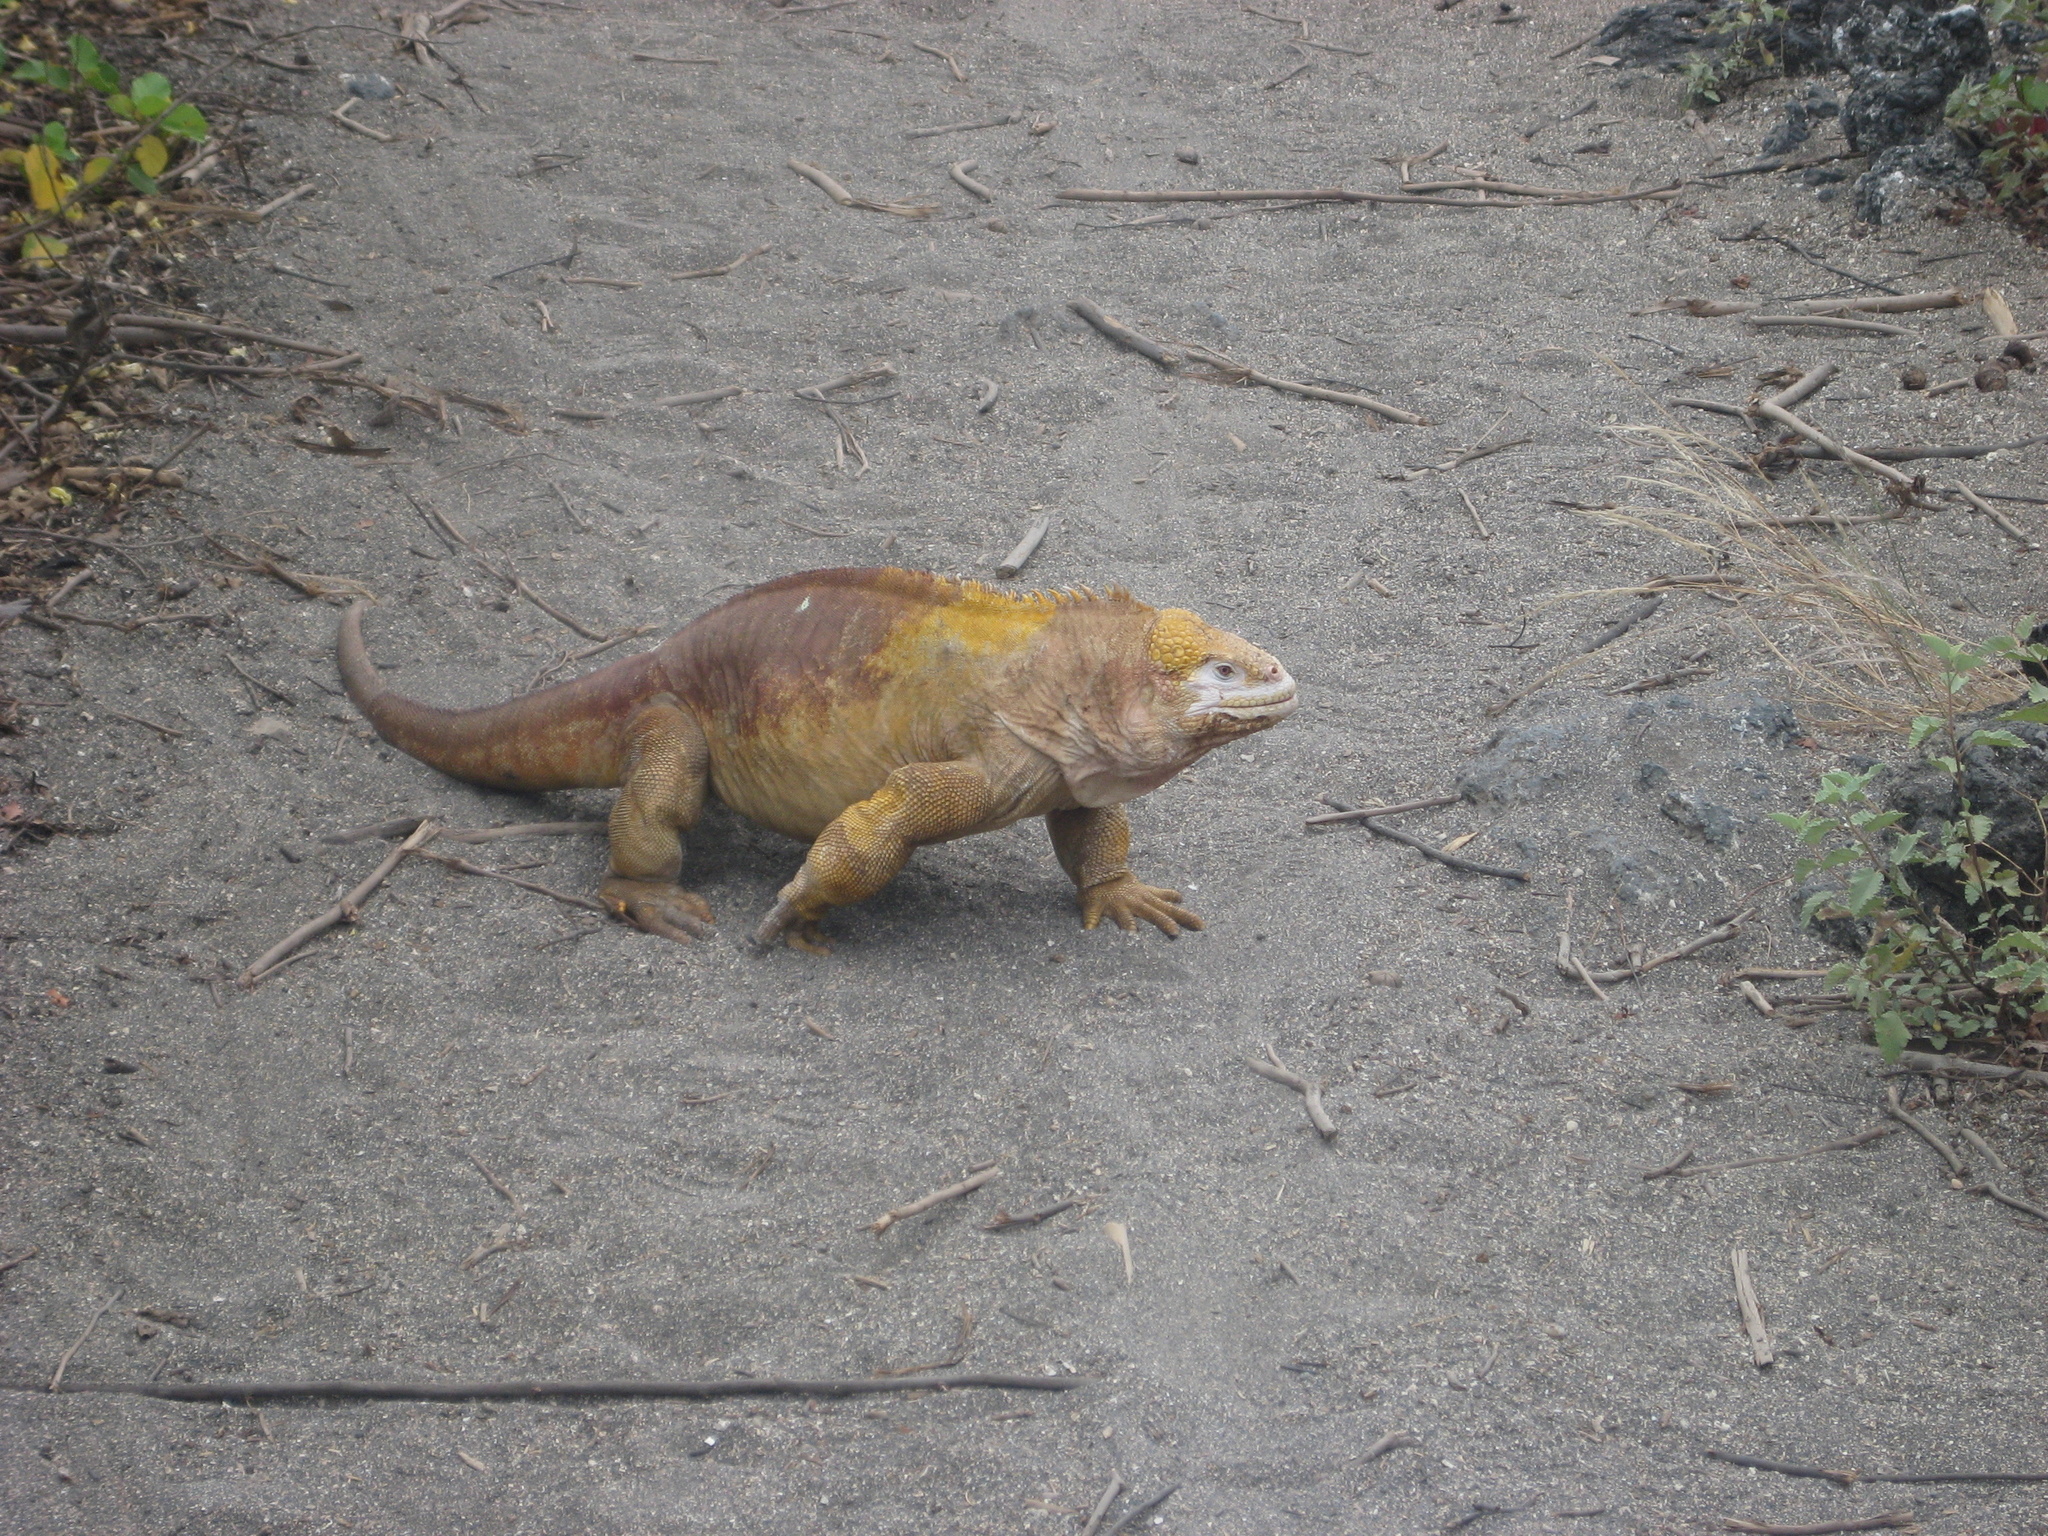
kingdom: Animalia
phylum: Chordata
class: Squamata
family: Iguanidae
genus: Conolophus
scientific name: Conolophus subcristatus
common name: Galapagos land iguana
